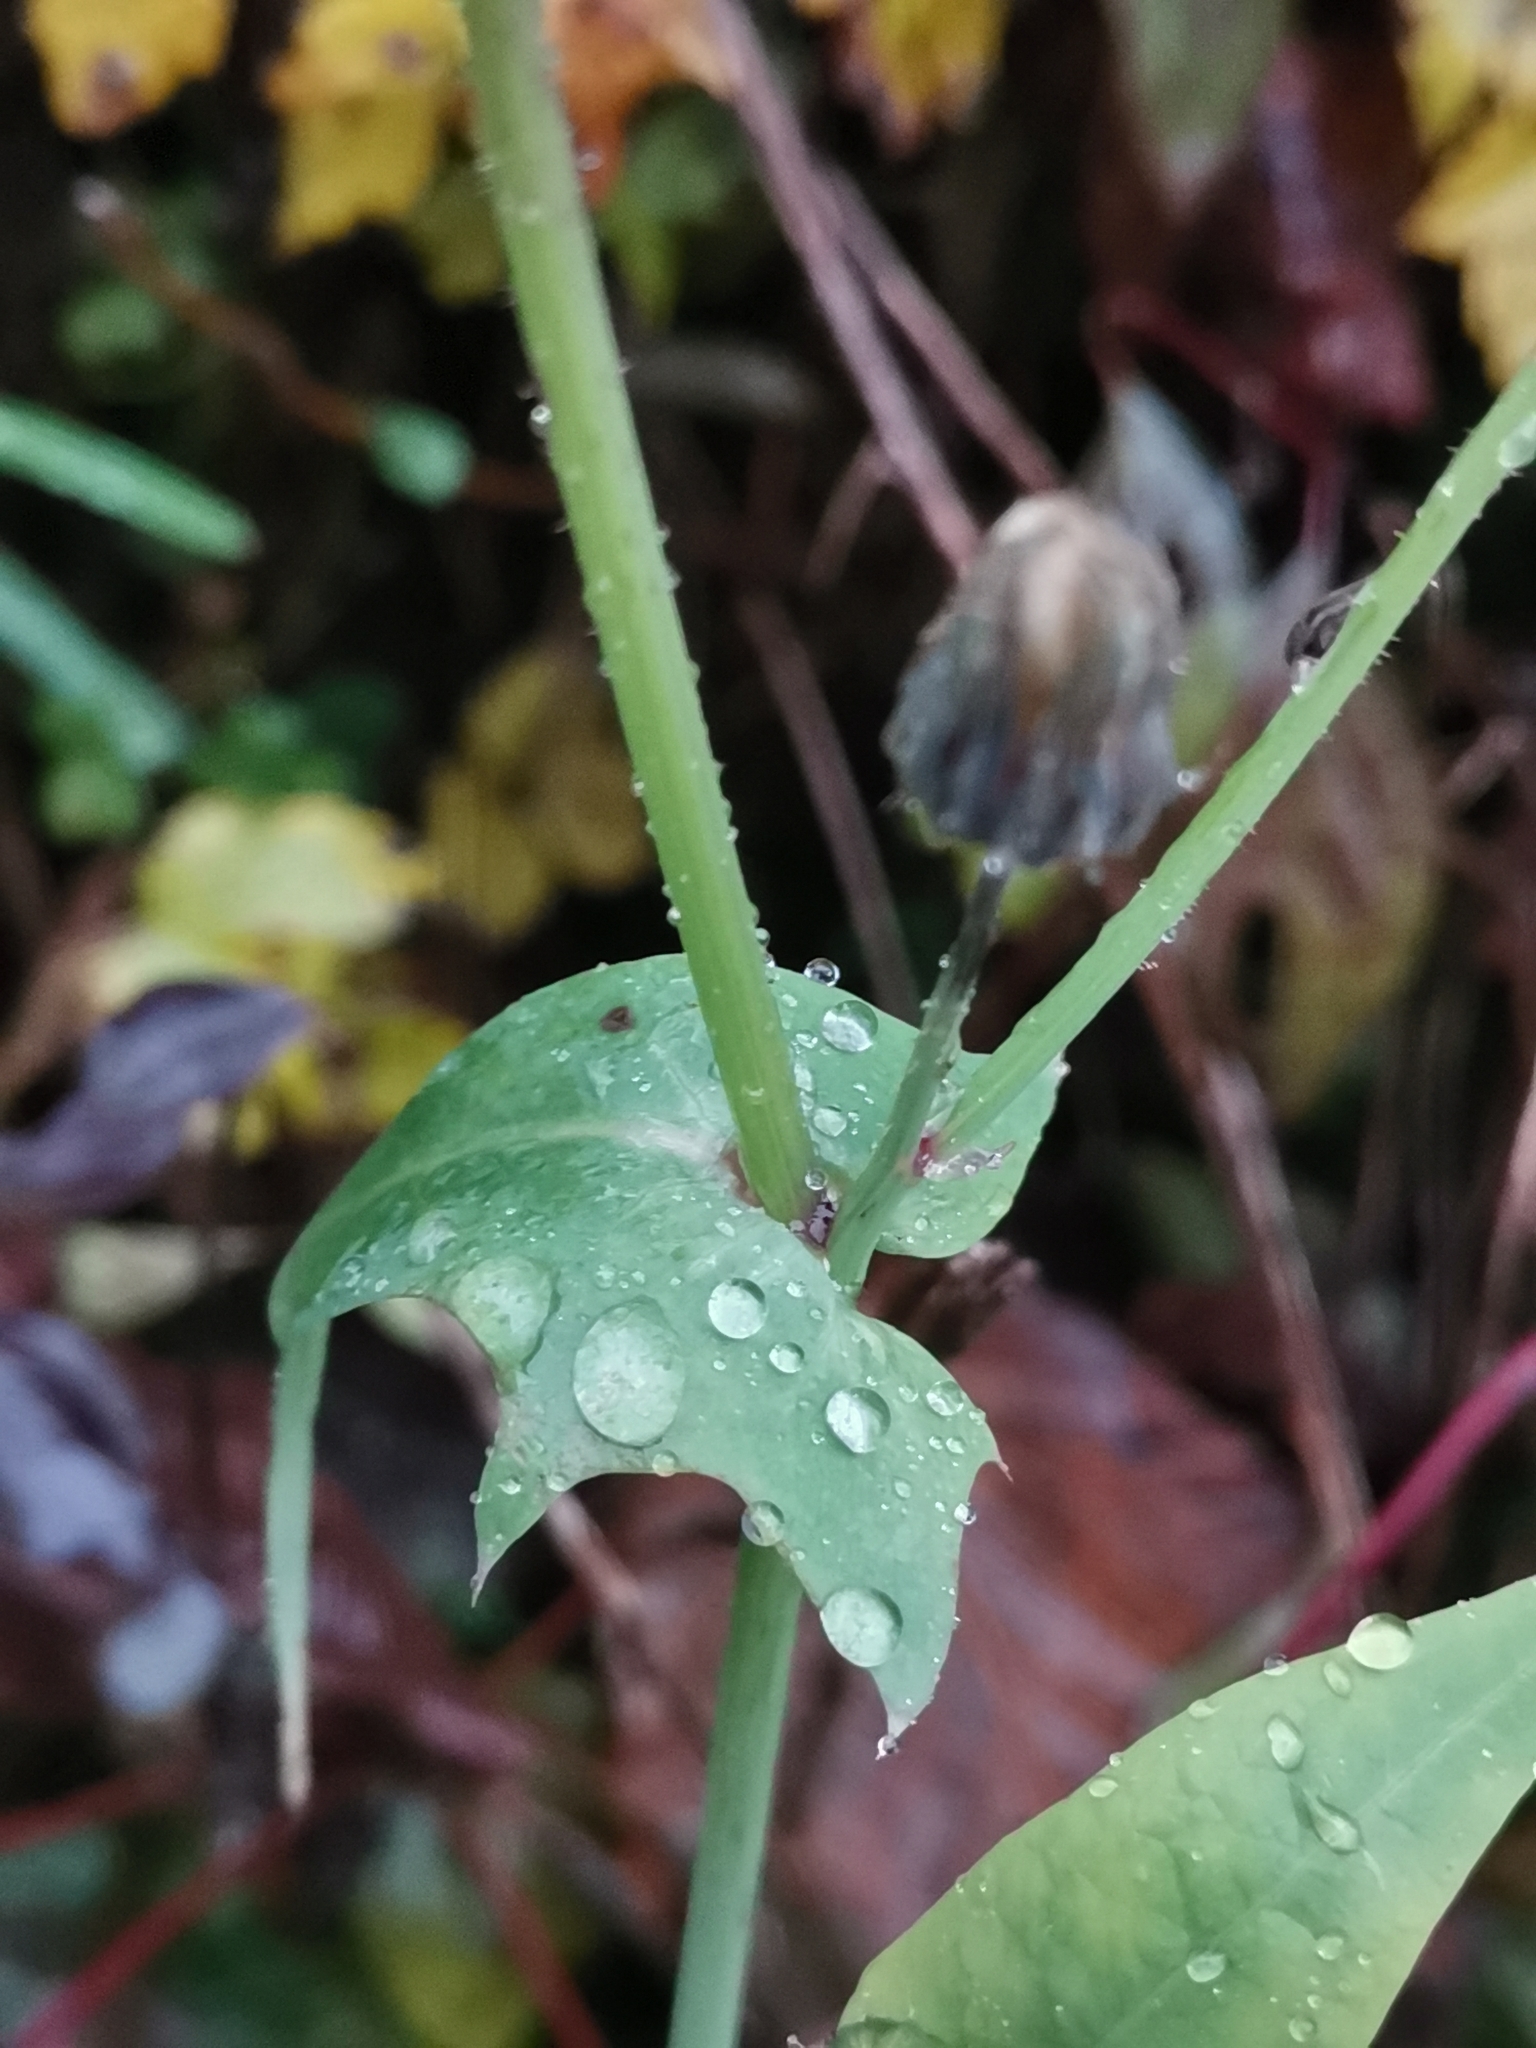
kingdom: Plantae
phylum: Tracheophyta
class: Magnoliopsida
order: Asterales
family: Asteraceae
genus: Sonchus
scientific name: Sonchus oleraceus
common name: Common sowthistle
